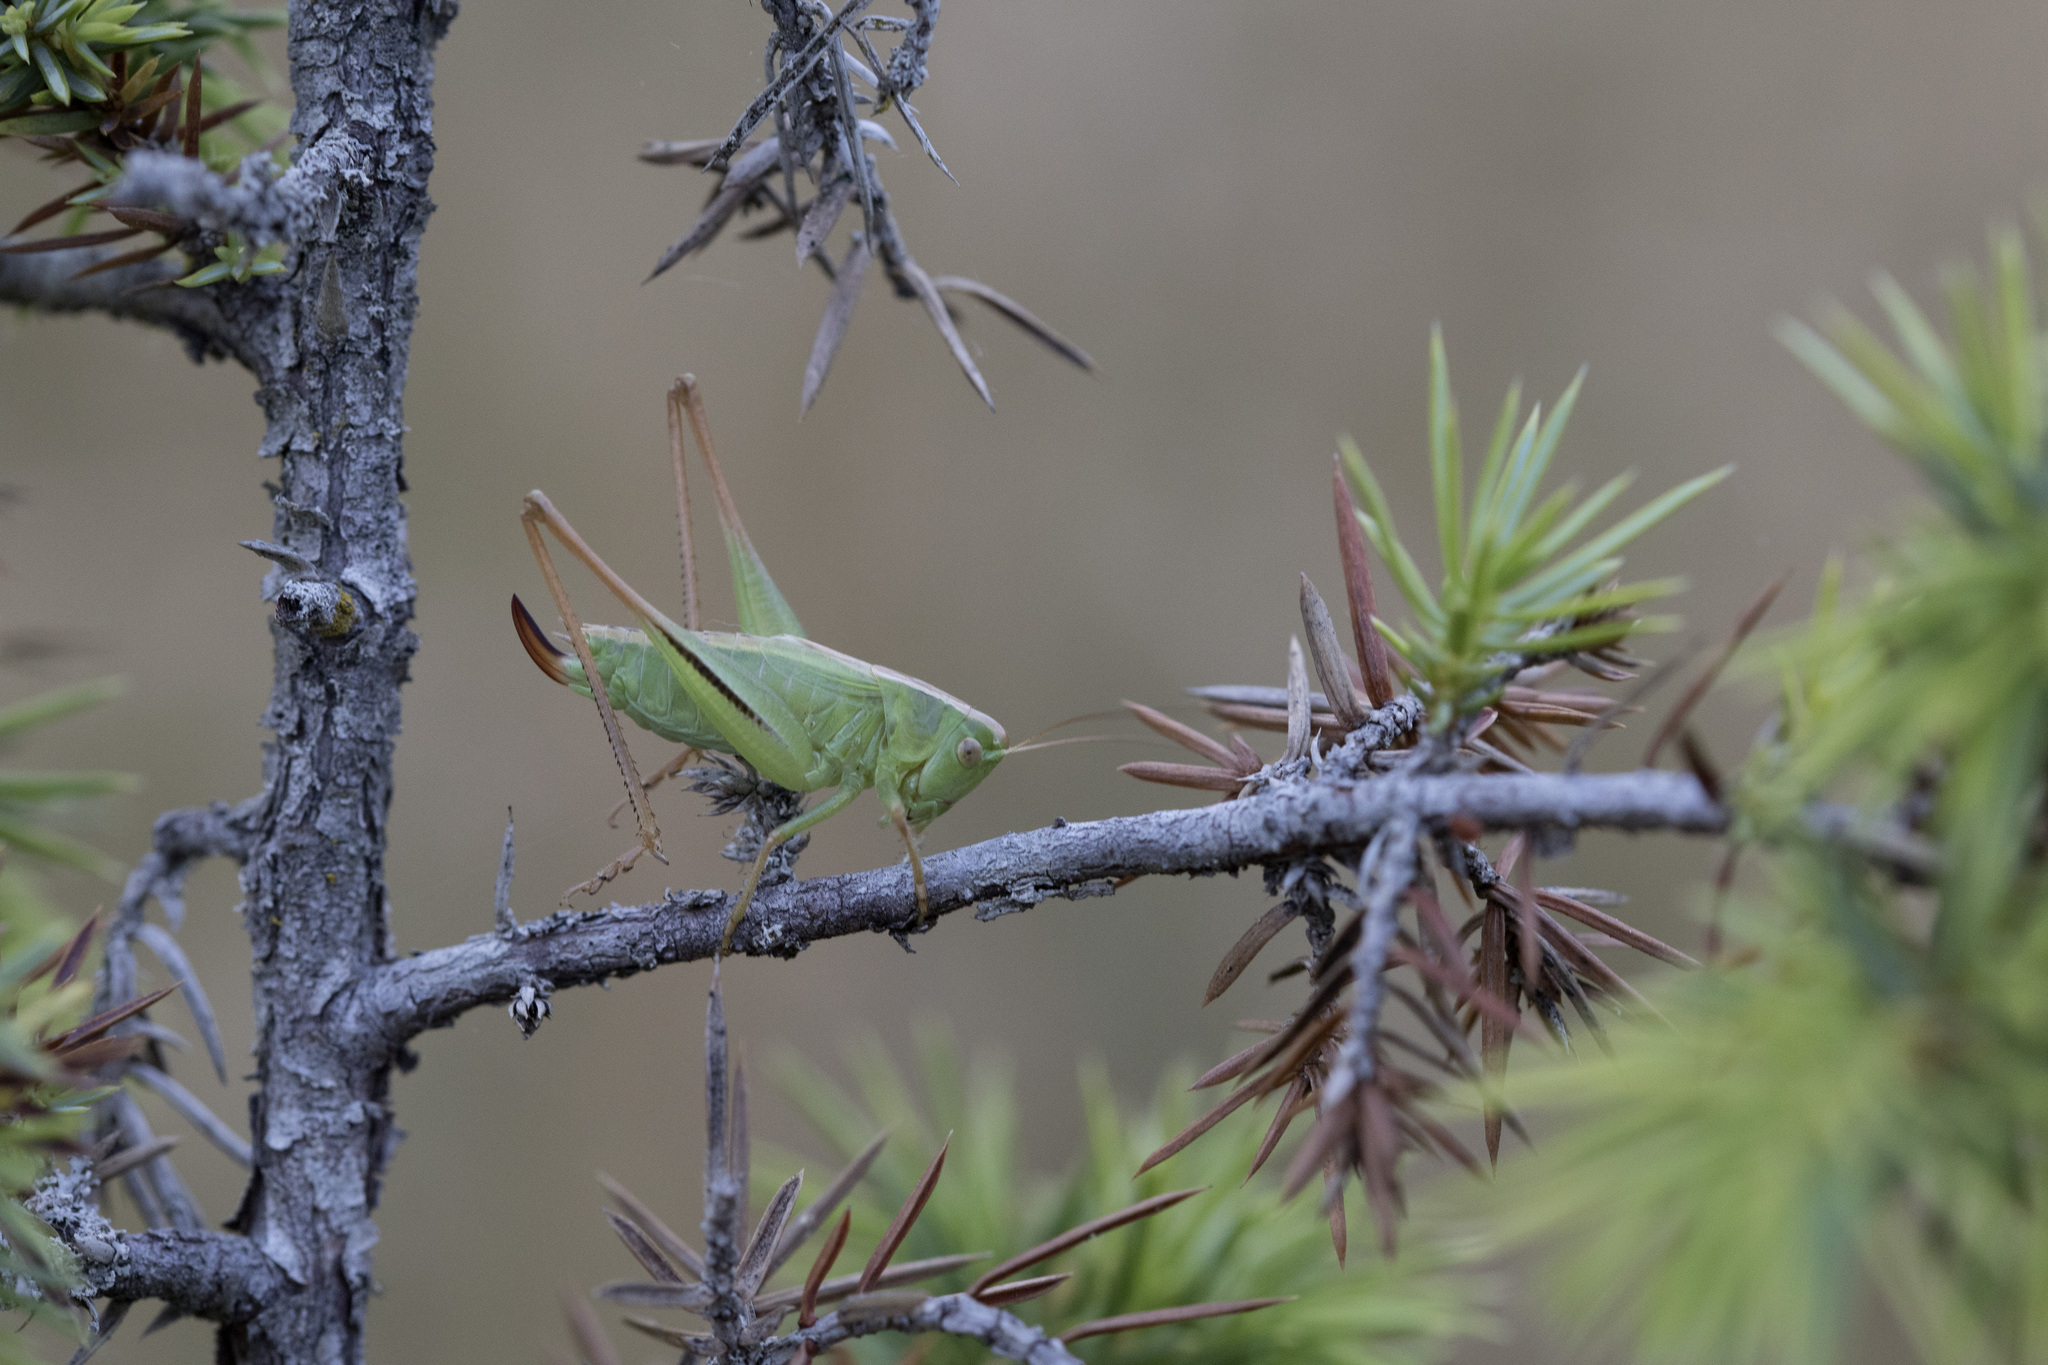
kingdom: Animalia
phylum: Arthropoda
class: Insecta
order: Orthoptera
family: Tettigoniidae
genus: Bicolorana
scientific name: Bicolorana bicolor
